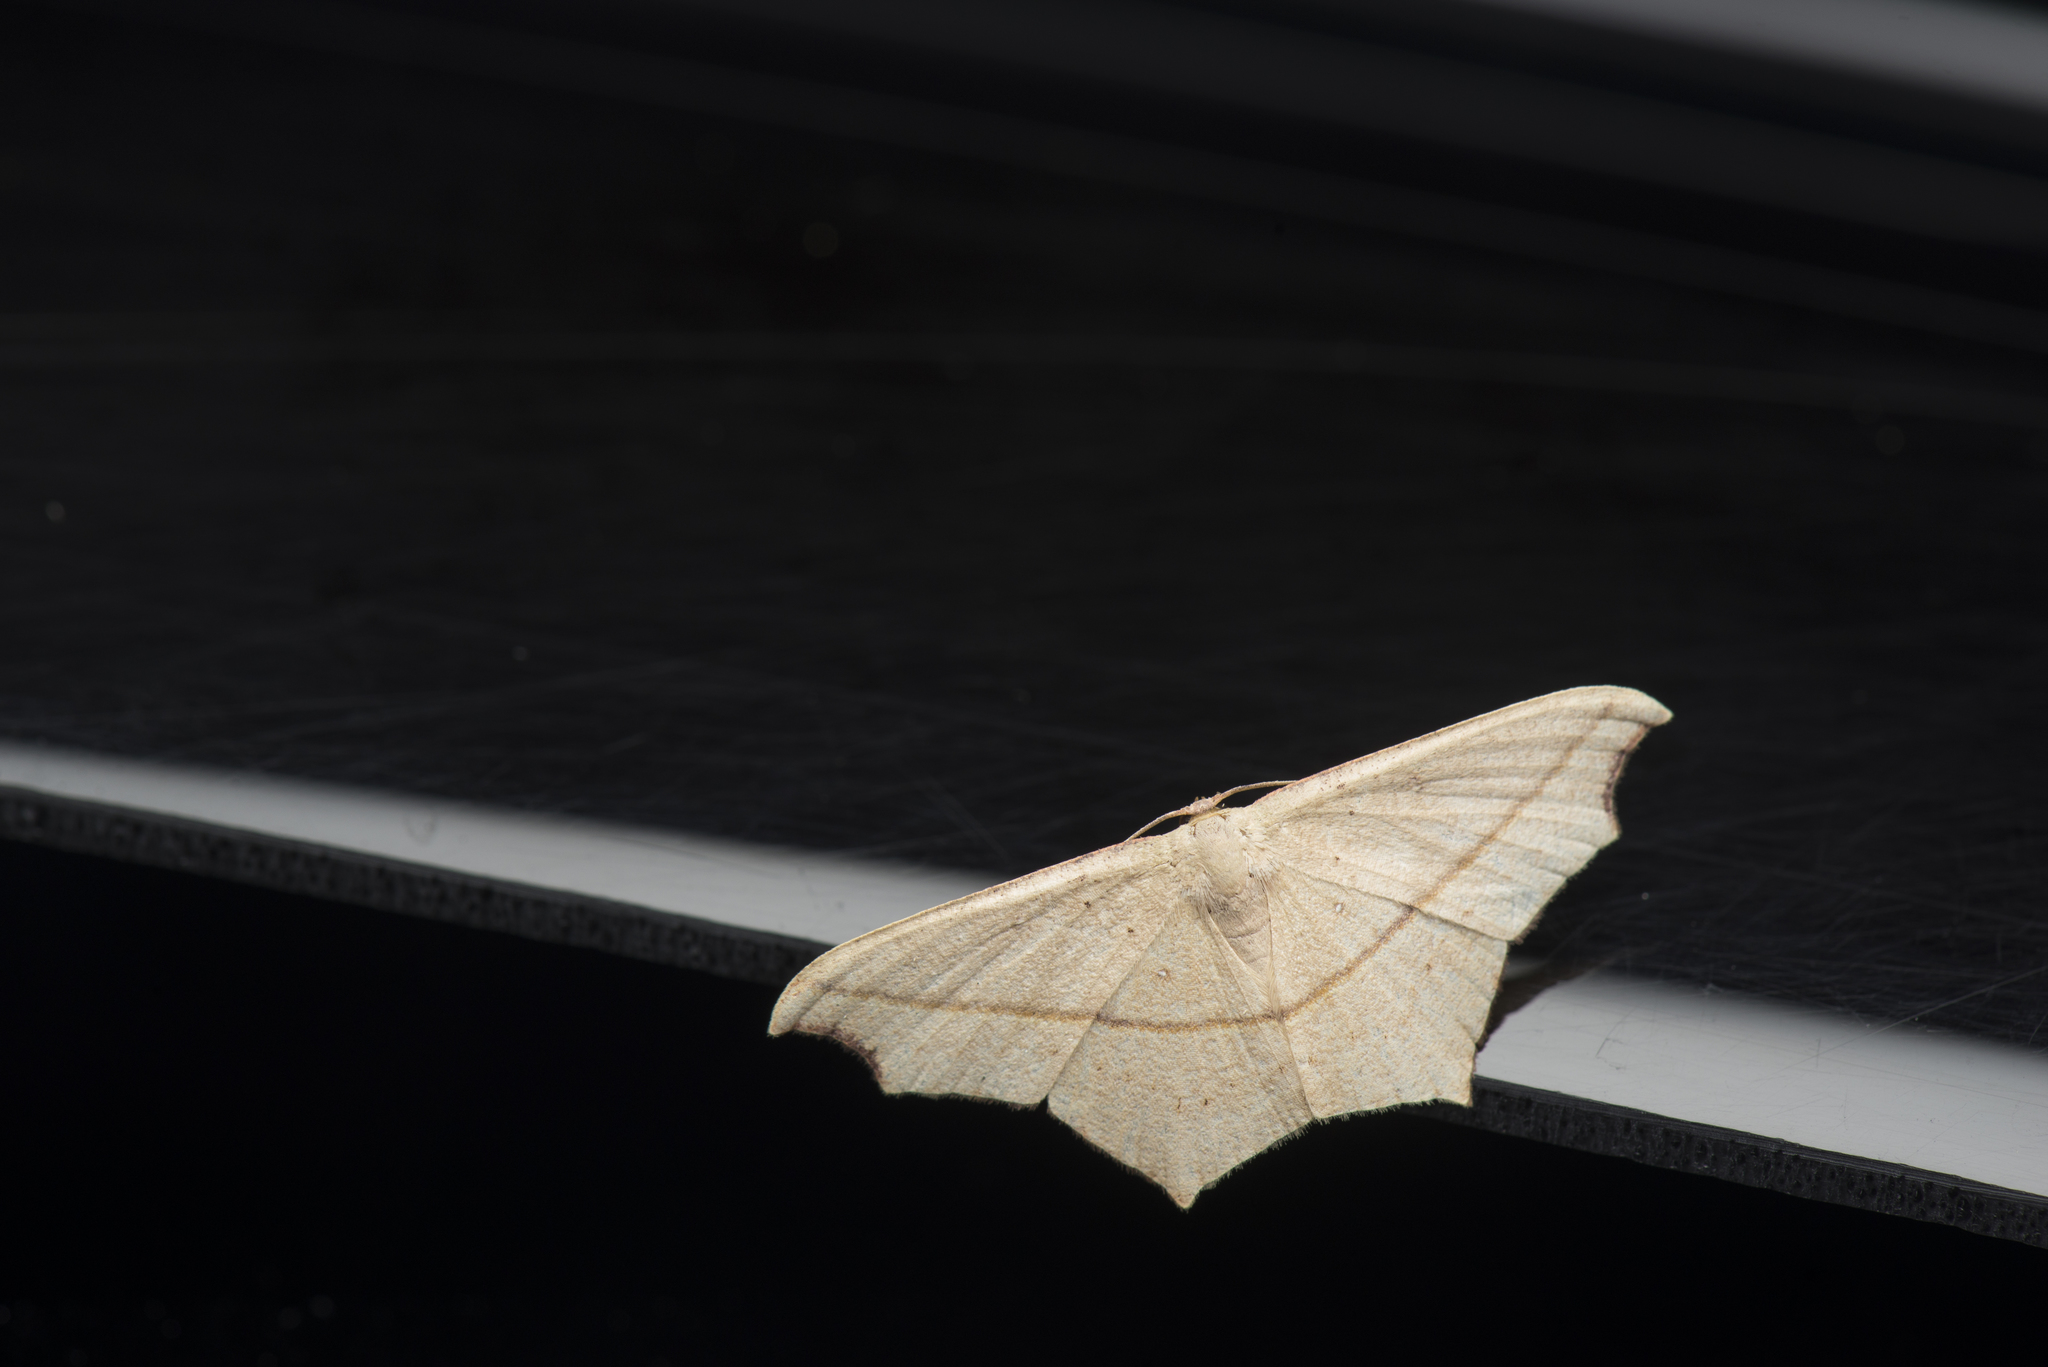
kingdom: Animalia
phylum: Arthropoda
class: Insecta
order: Lepidoptera
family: Geometridae
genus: Traminda
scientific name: Traminda aventiaria
